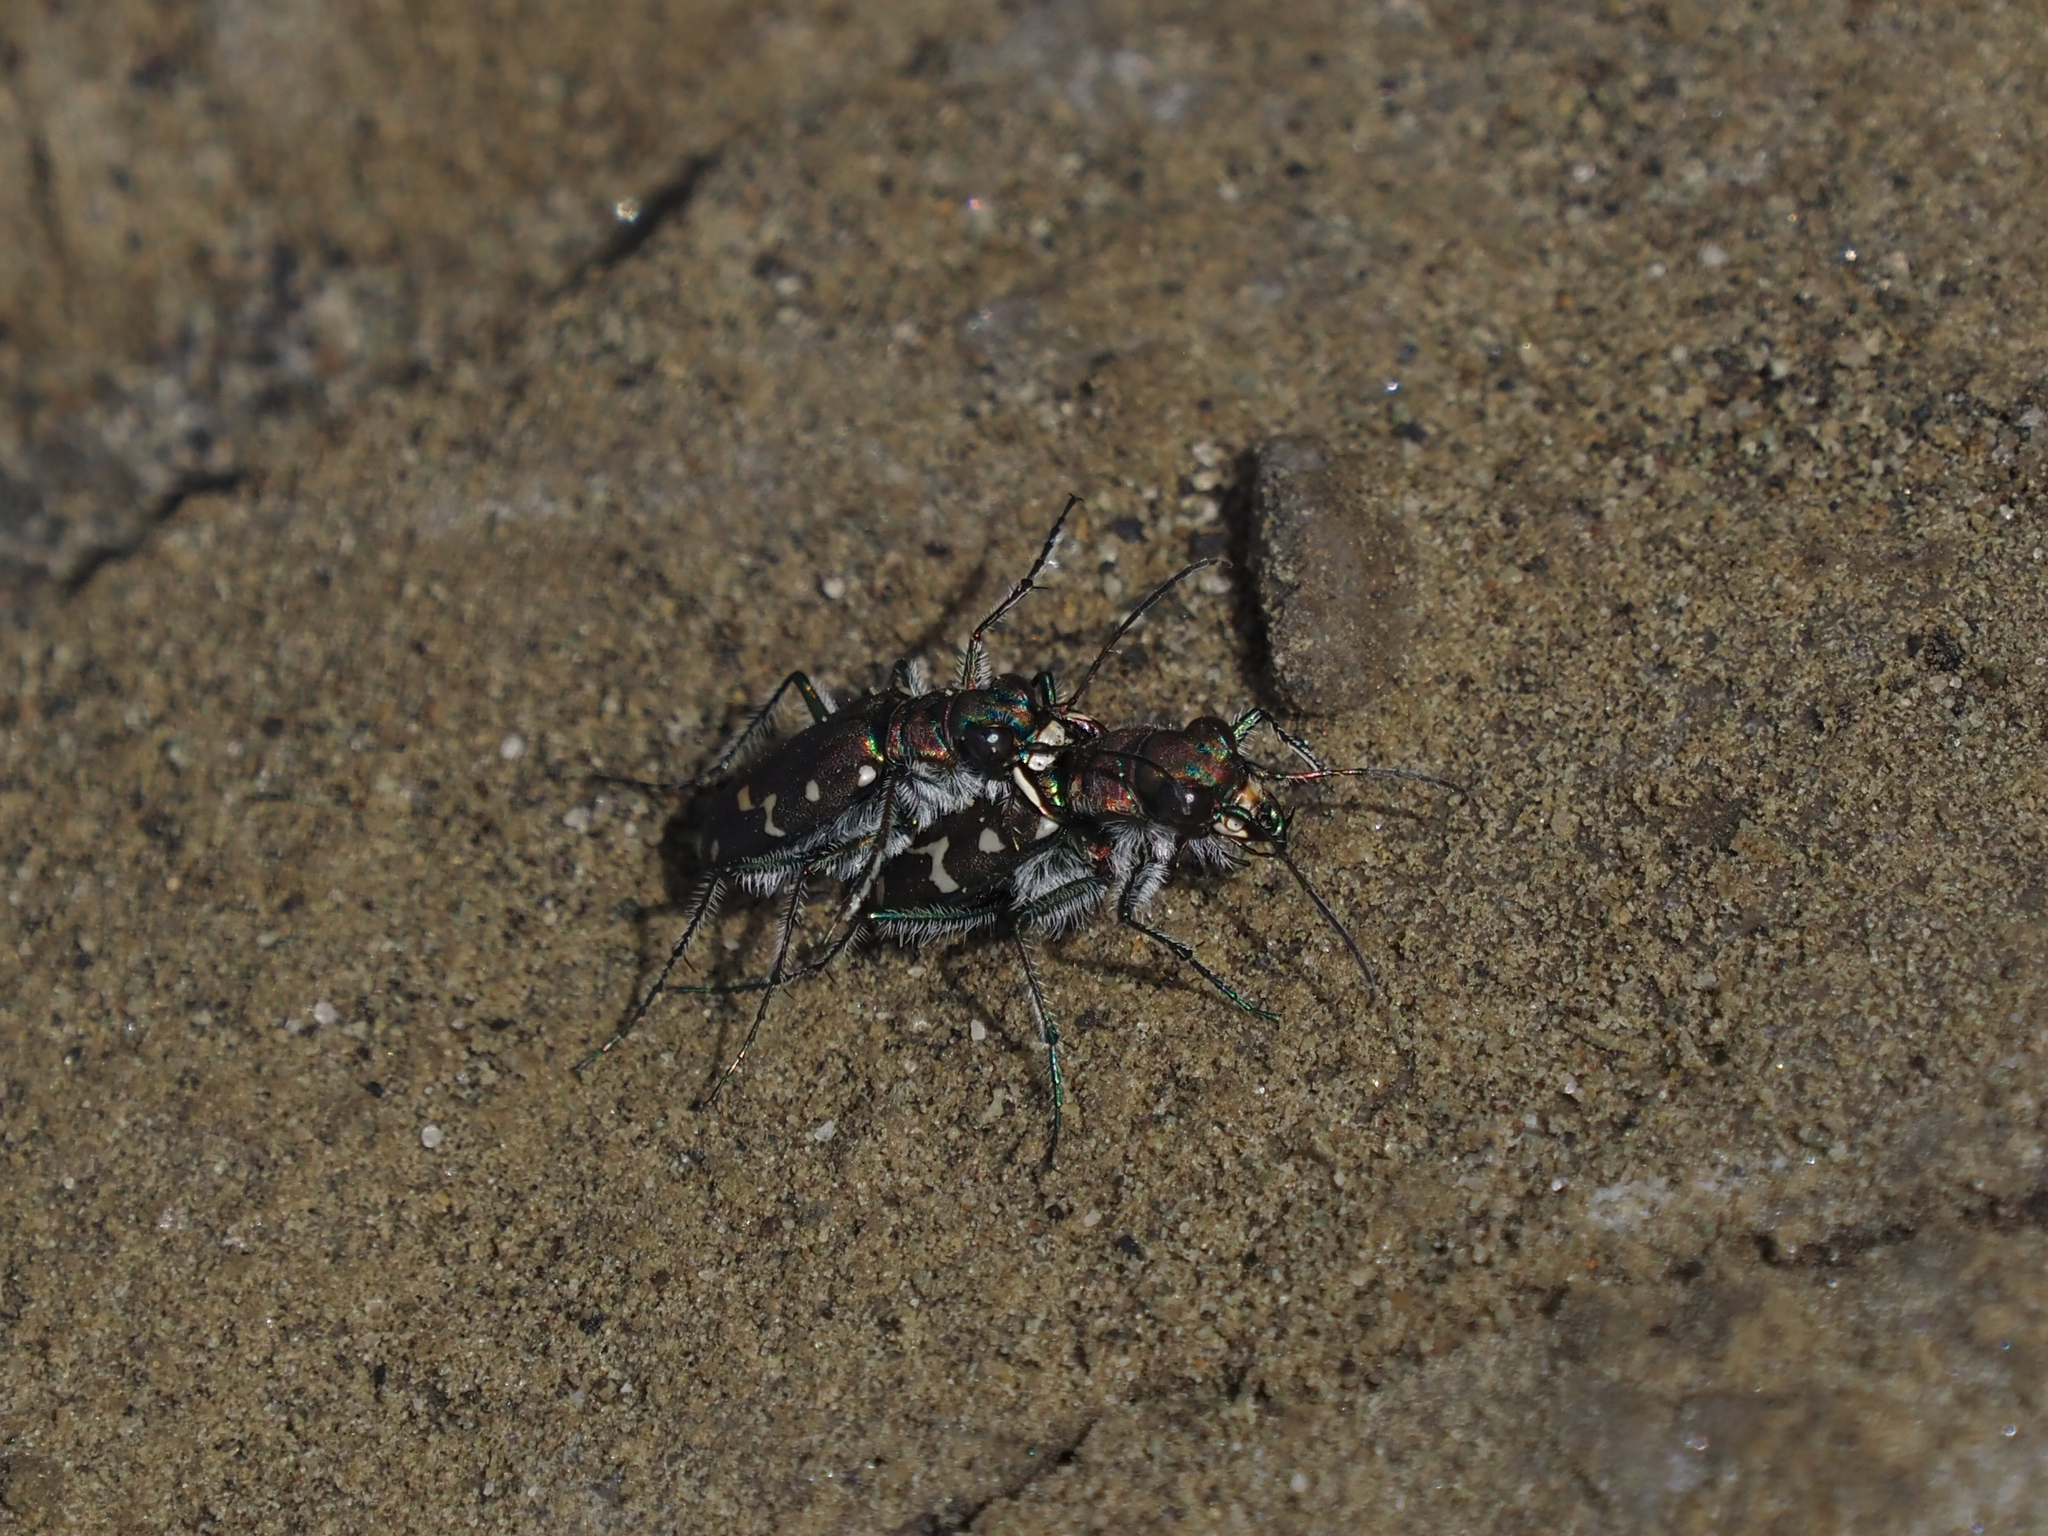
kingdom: Animalia
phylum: Arthropoda
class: Insecta
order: Coleoptera
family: Carabidae
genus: Cicindela
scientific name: Cicindela oregona
